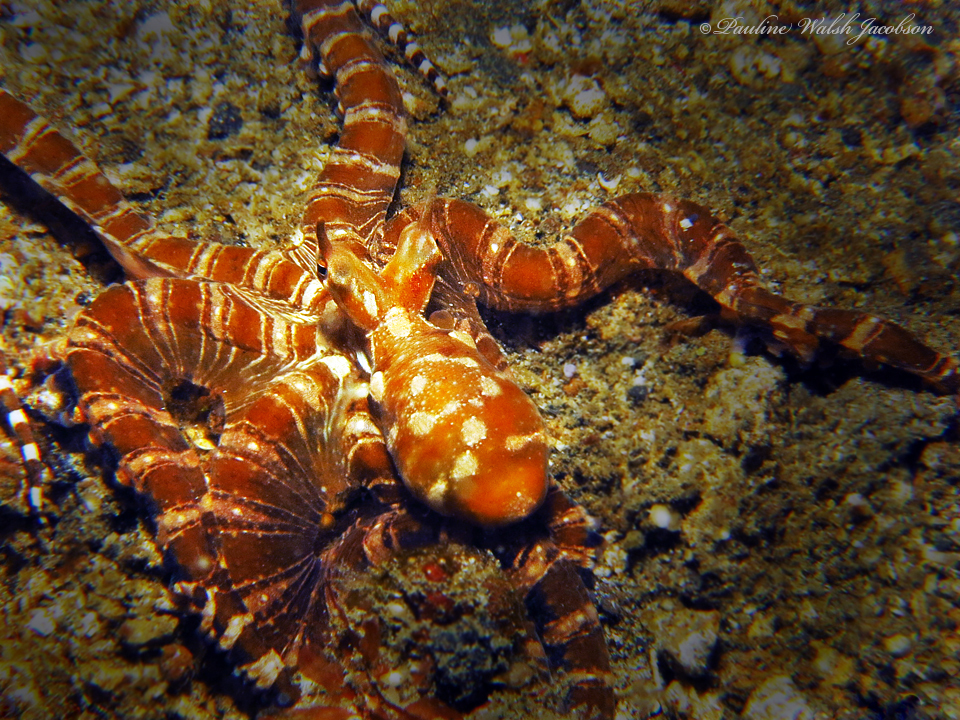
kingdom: Animalia
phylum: Mollusca
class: Cephalopoda
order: Octopoda
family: Octopodidae
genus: Wunderpus
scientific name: Wunderpus photogenicus
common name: Wunderpus
